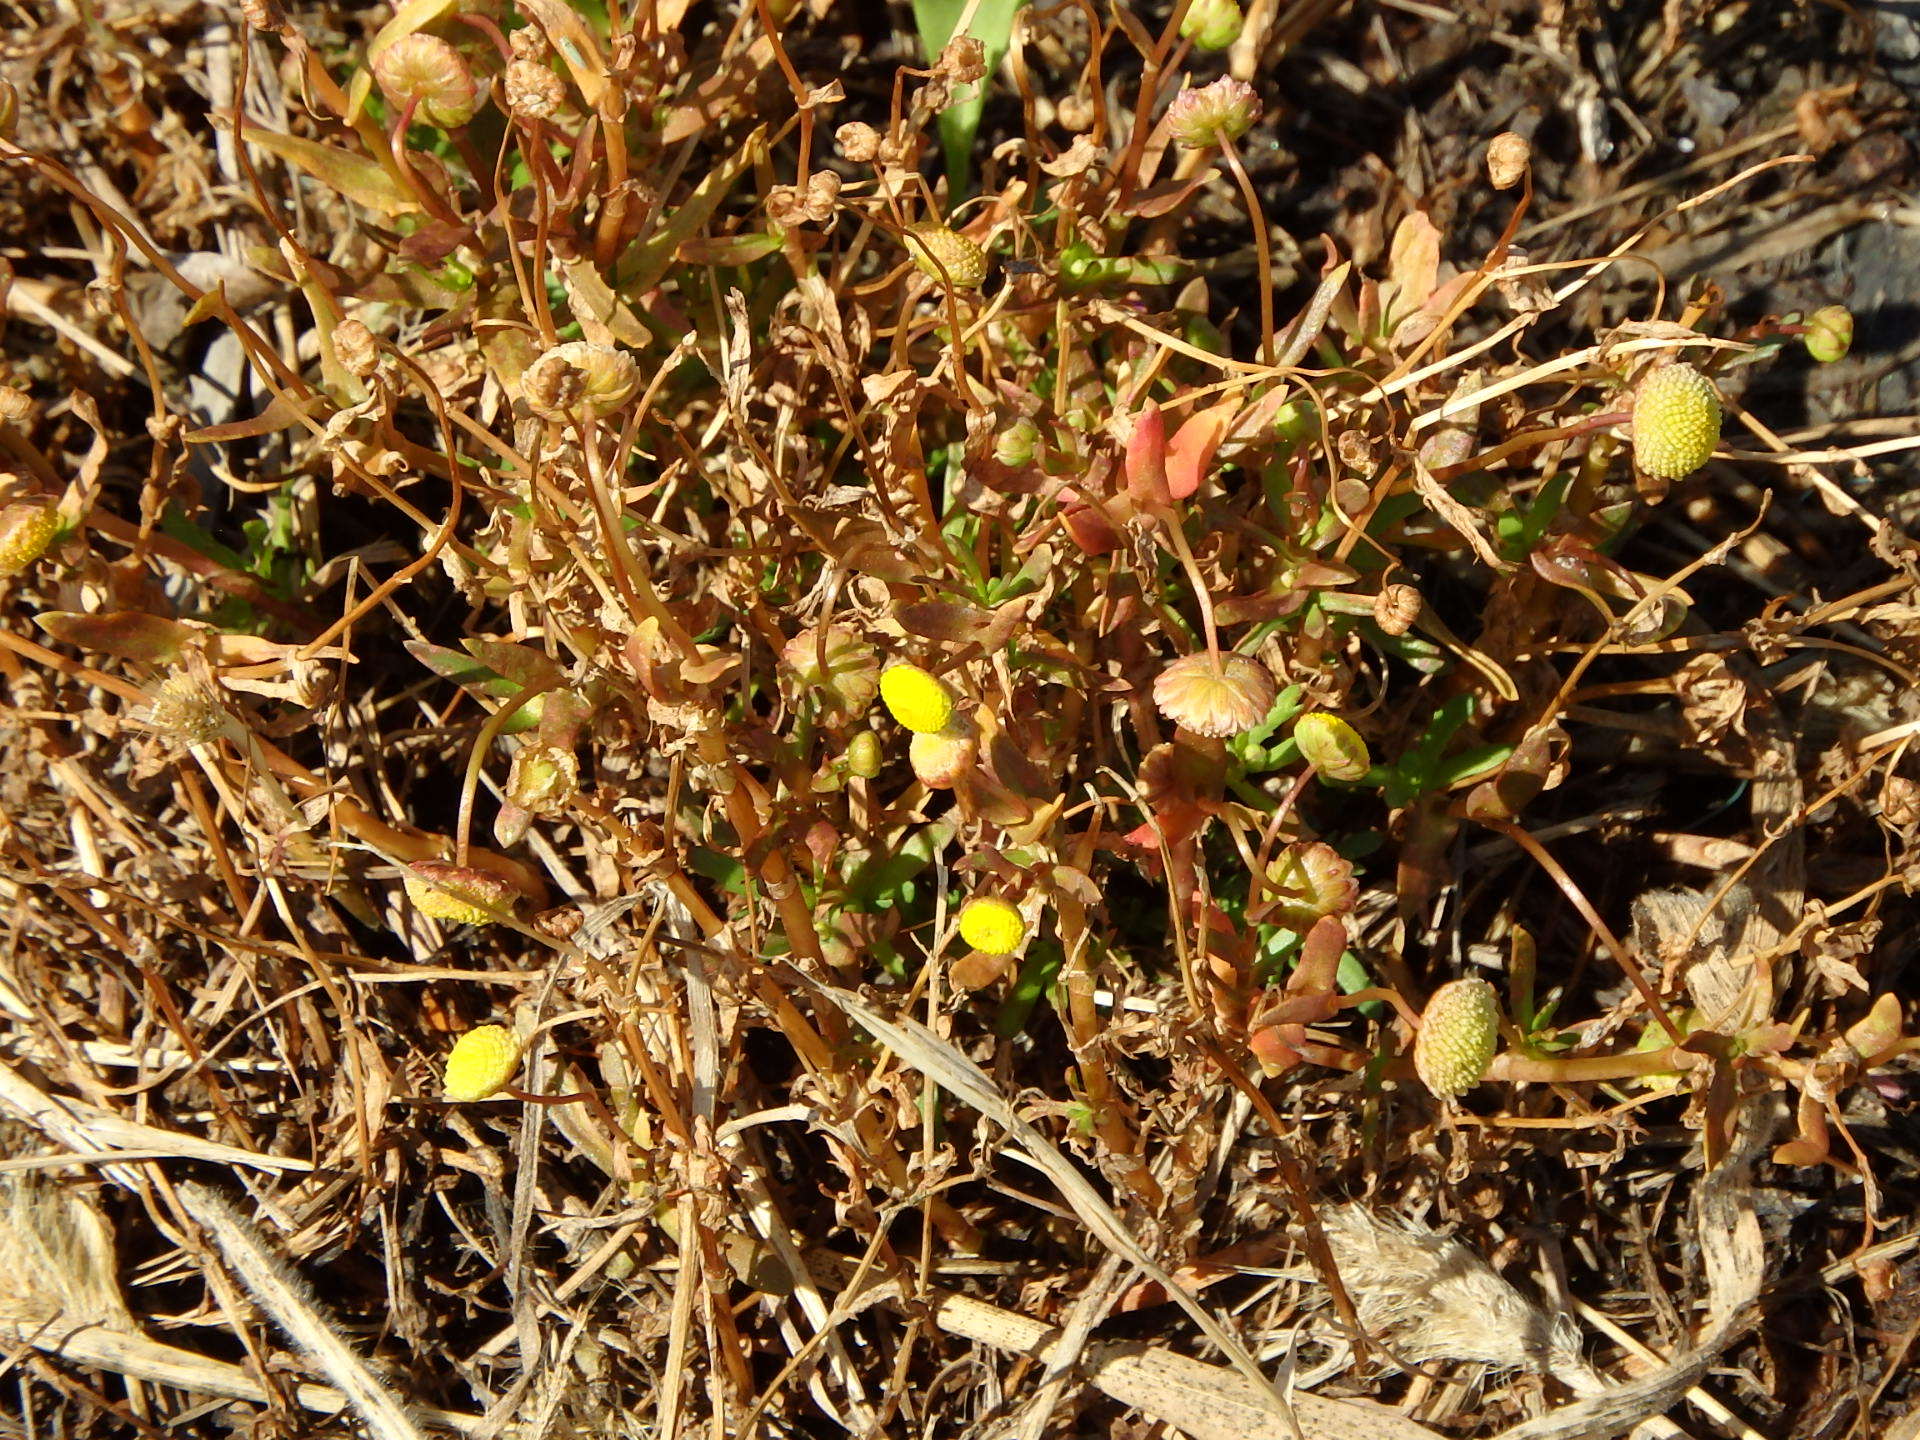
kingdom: Plantae
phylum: Tracheophyta
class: Magnoliopsida
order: Asterales
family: Asteraceae
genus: Cotula
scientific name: Cotula coronopifolia
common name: Buttonweed
